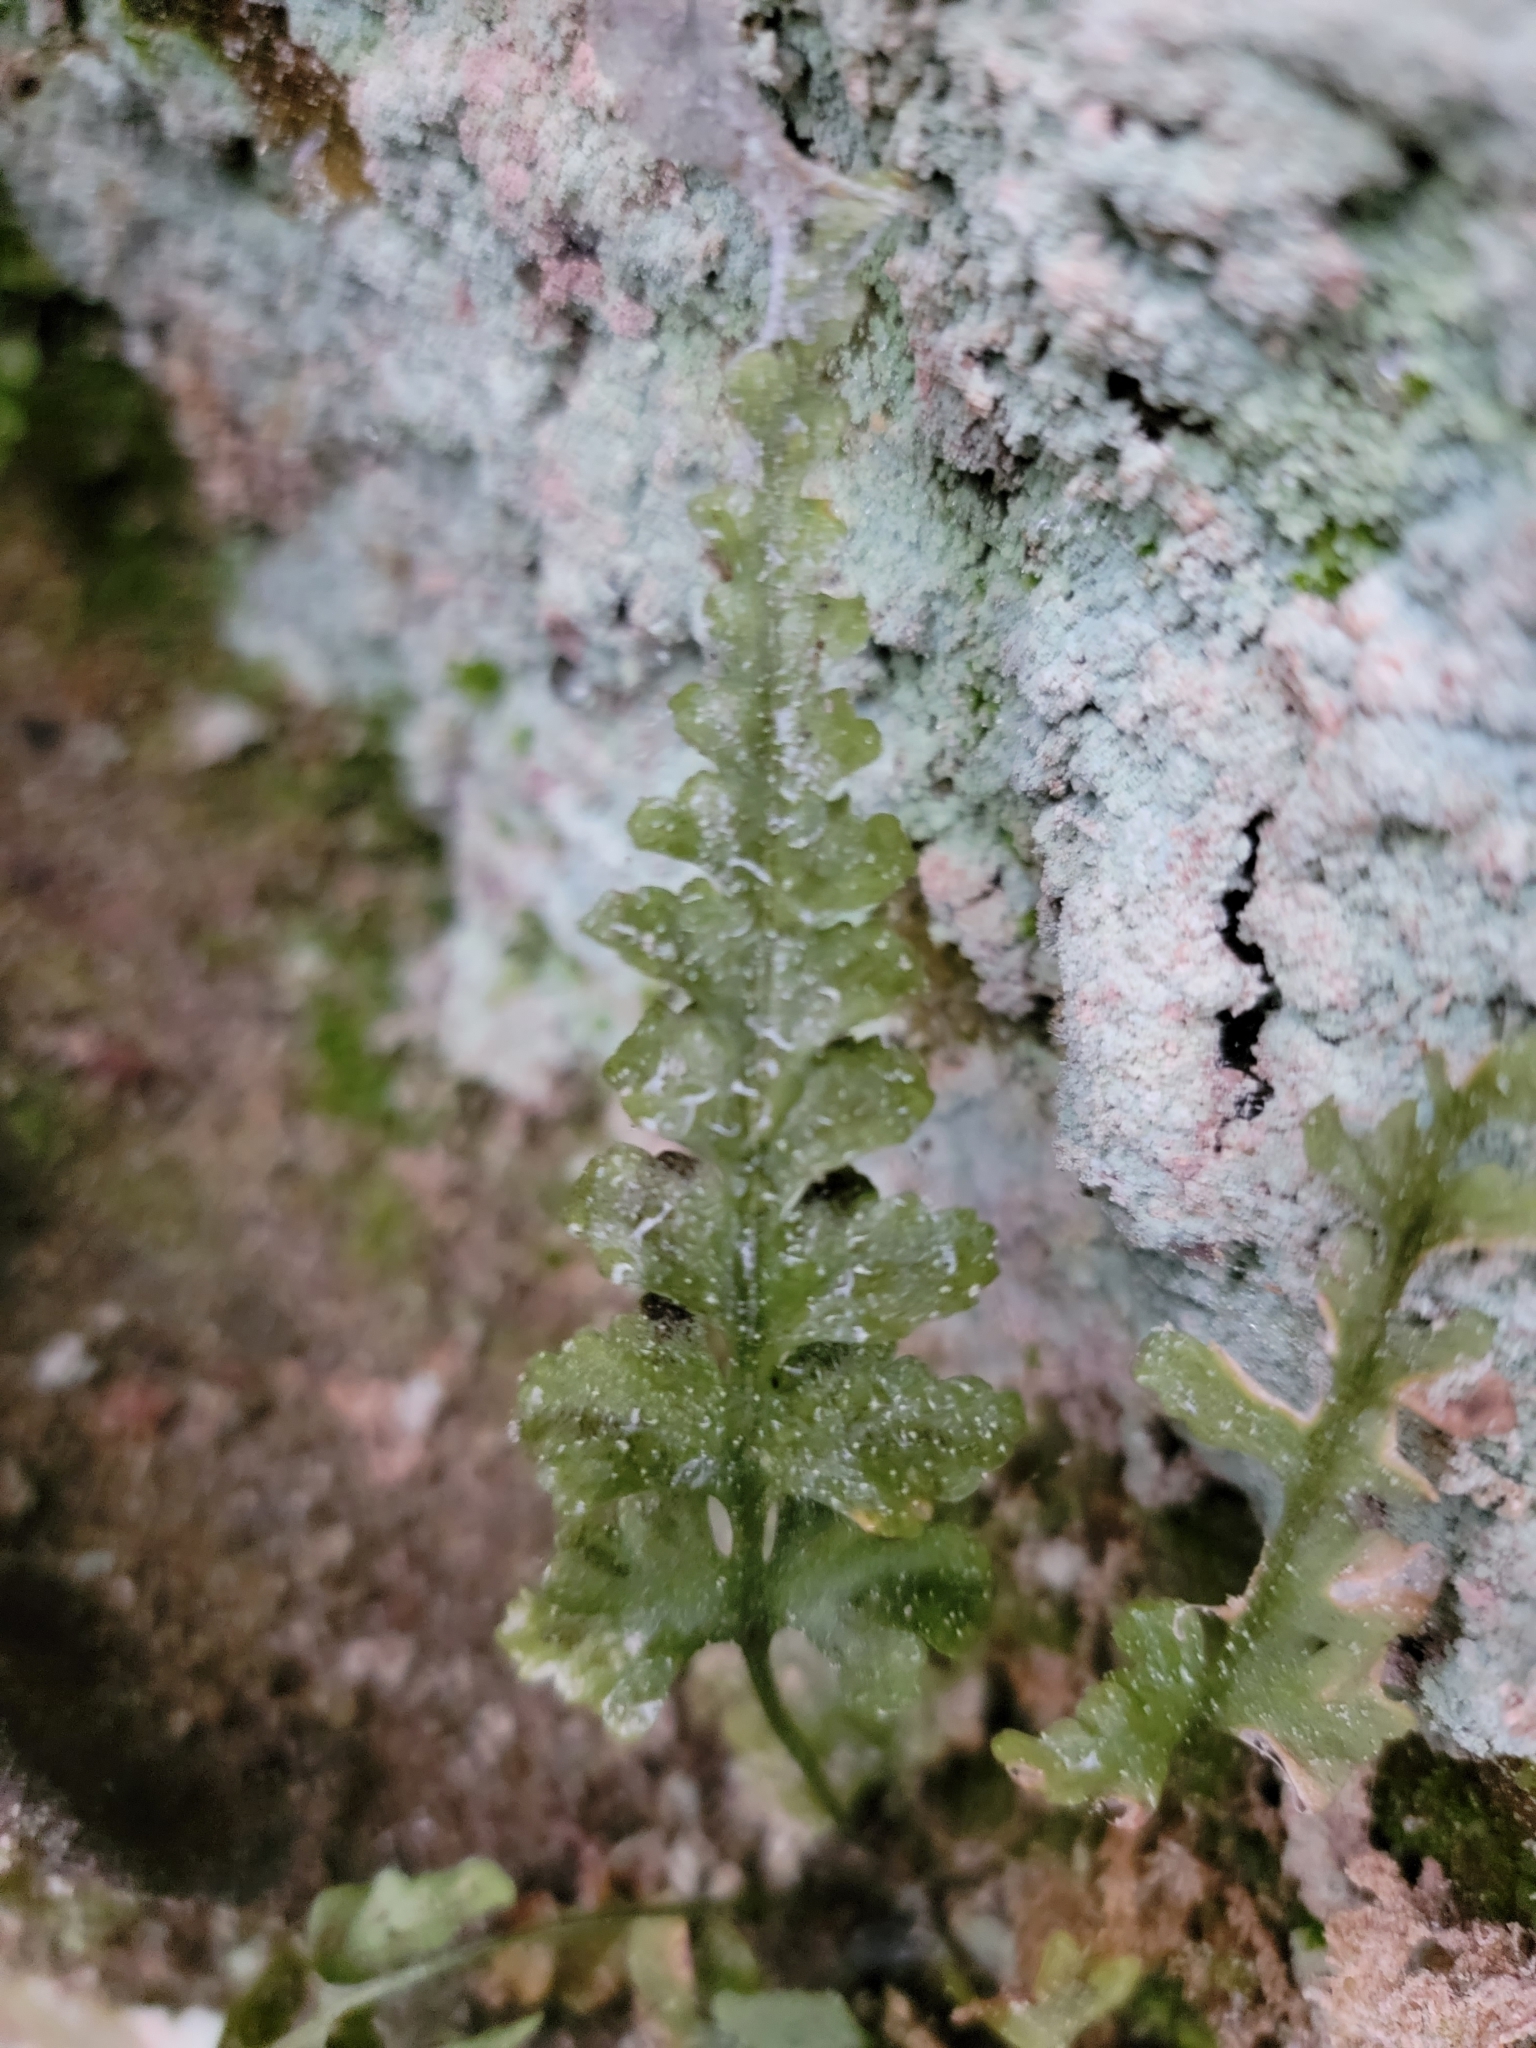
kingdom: Plantae
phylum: Tracheophyta
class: Polypodiopsida
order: Polypodiales
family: Aspleniaceae
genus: Asplenium
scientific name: Asplenium pinnatifidum
